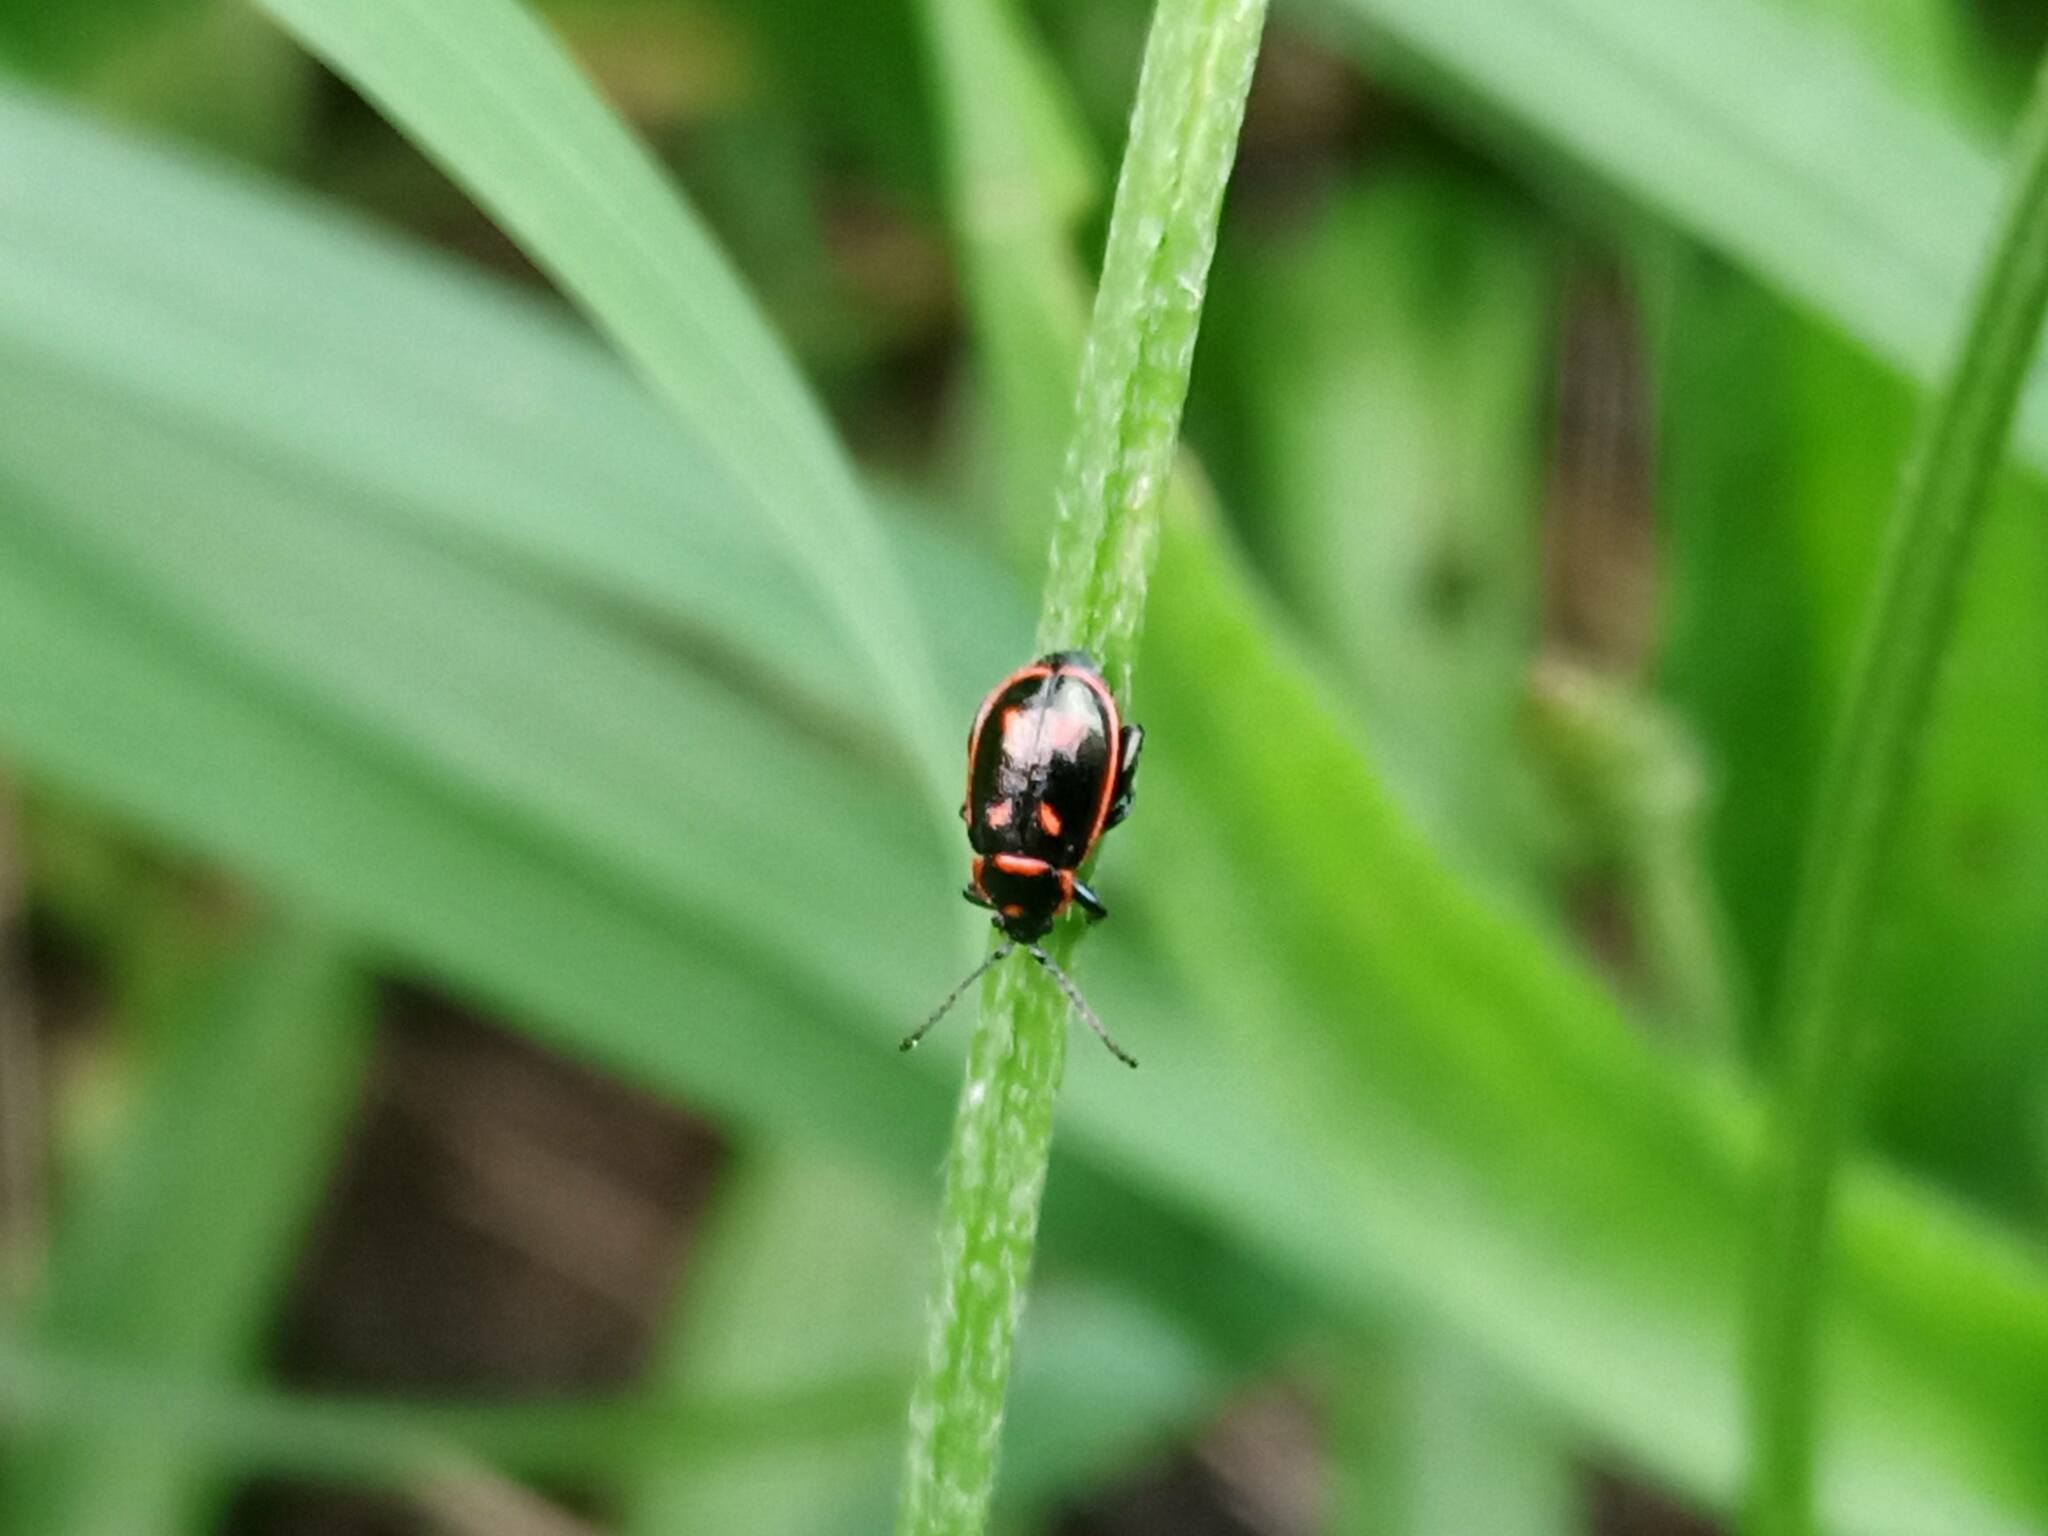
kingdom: Animalia
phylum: Arthropoda
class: Insecta
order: Coleoptera
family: Chrysomelidae
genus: Oedionychis
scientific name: Oedionychis cincta
